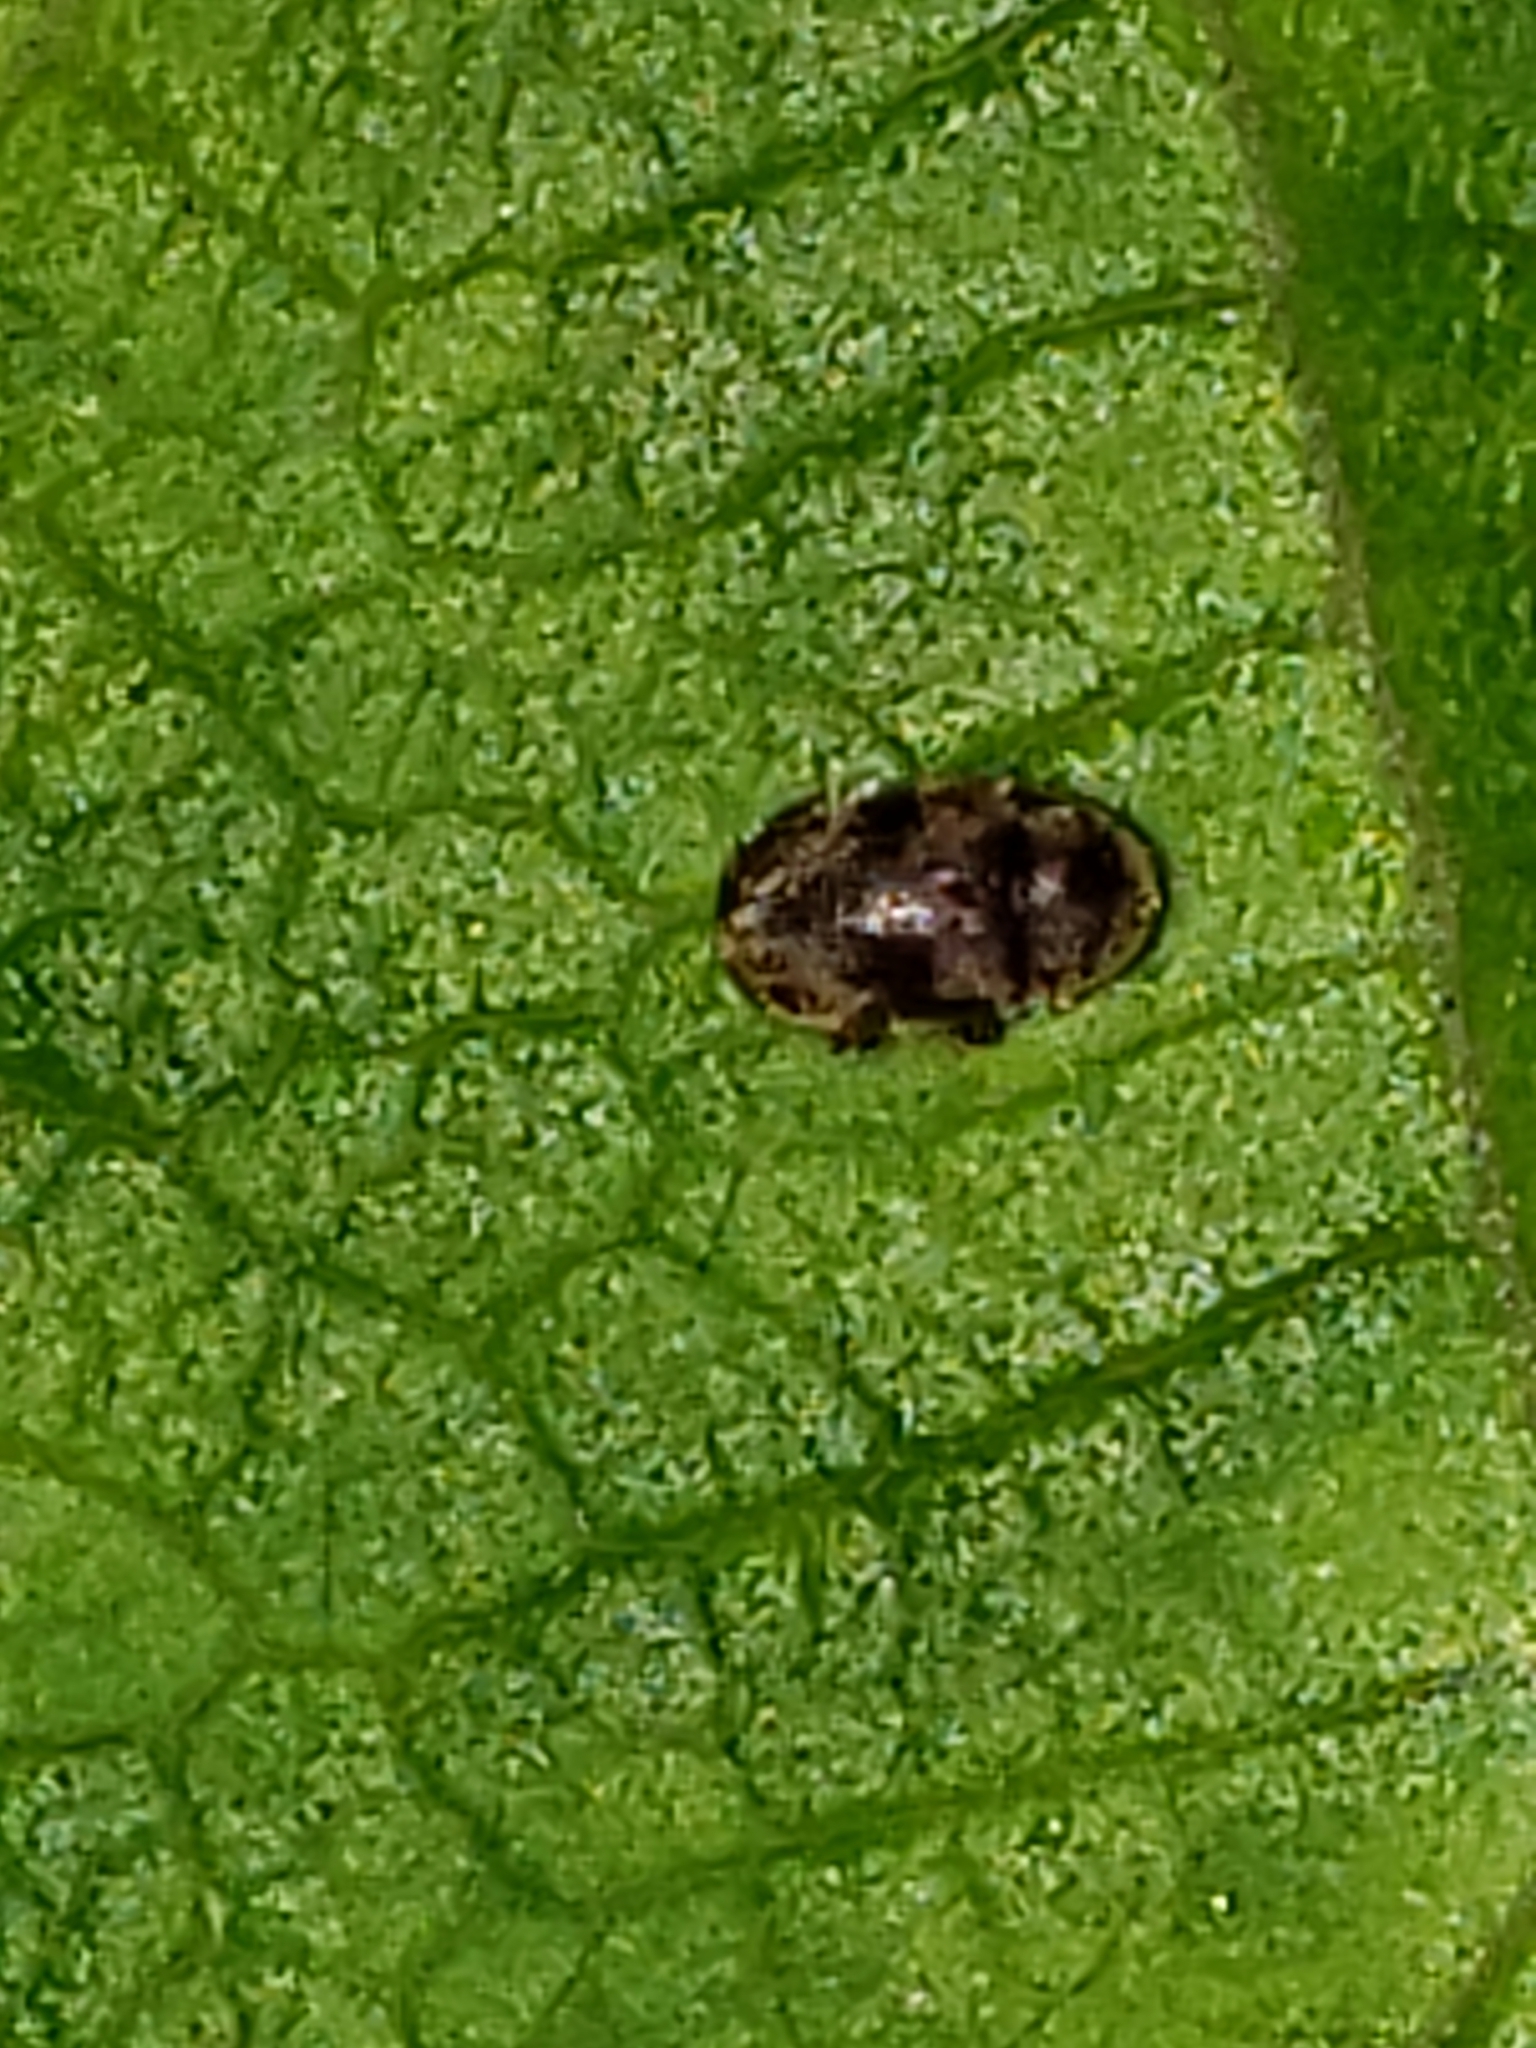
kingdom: Animalia
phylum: Arthropoda
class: Insecta
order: Coleoptera
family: Anobiidae
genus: Protheca
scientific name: Protheca hispida
